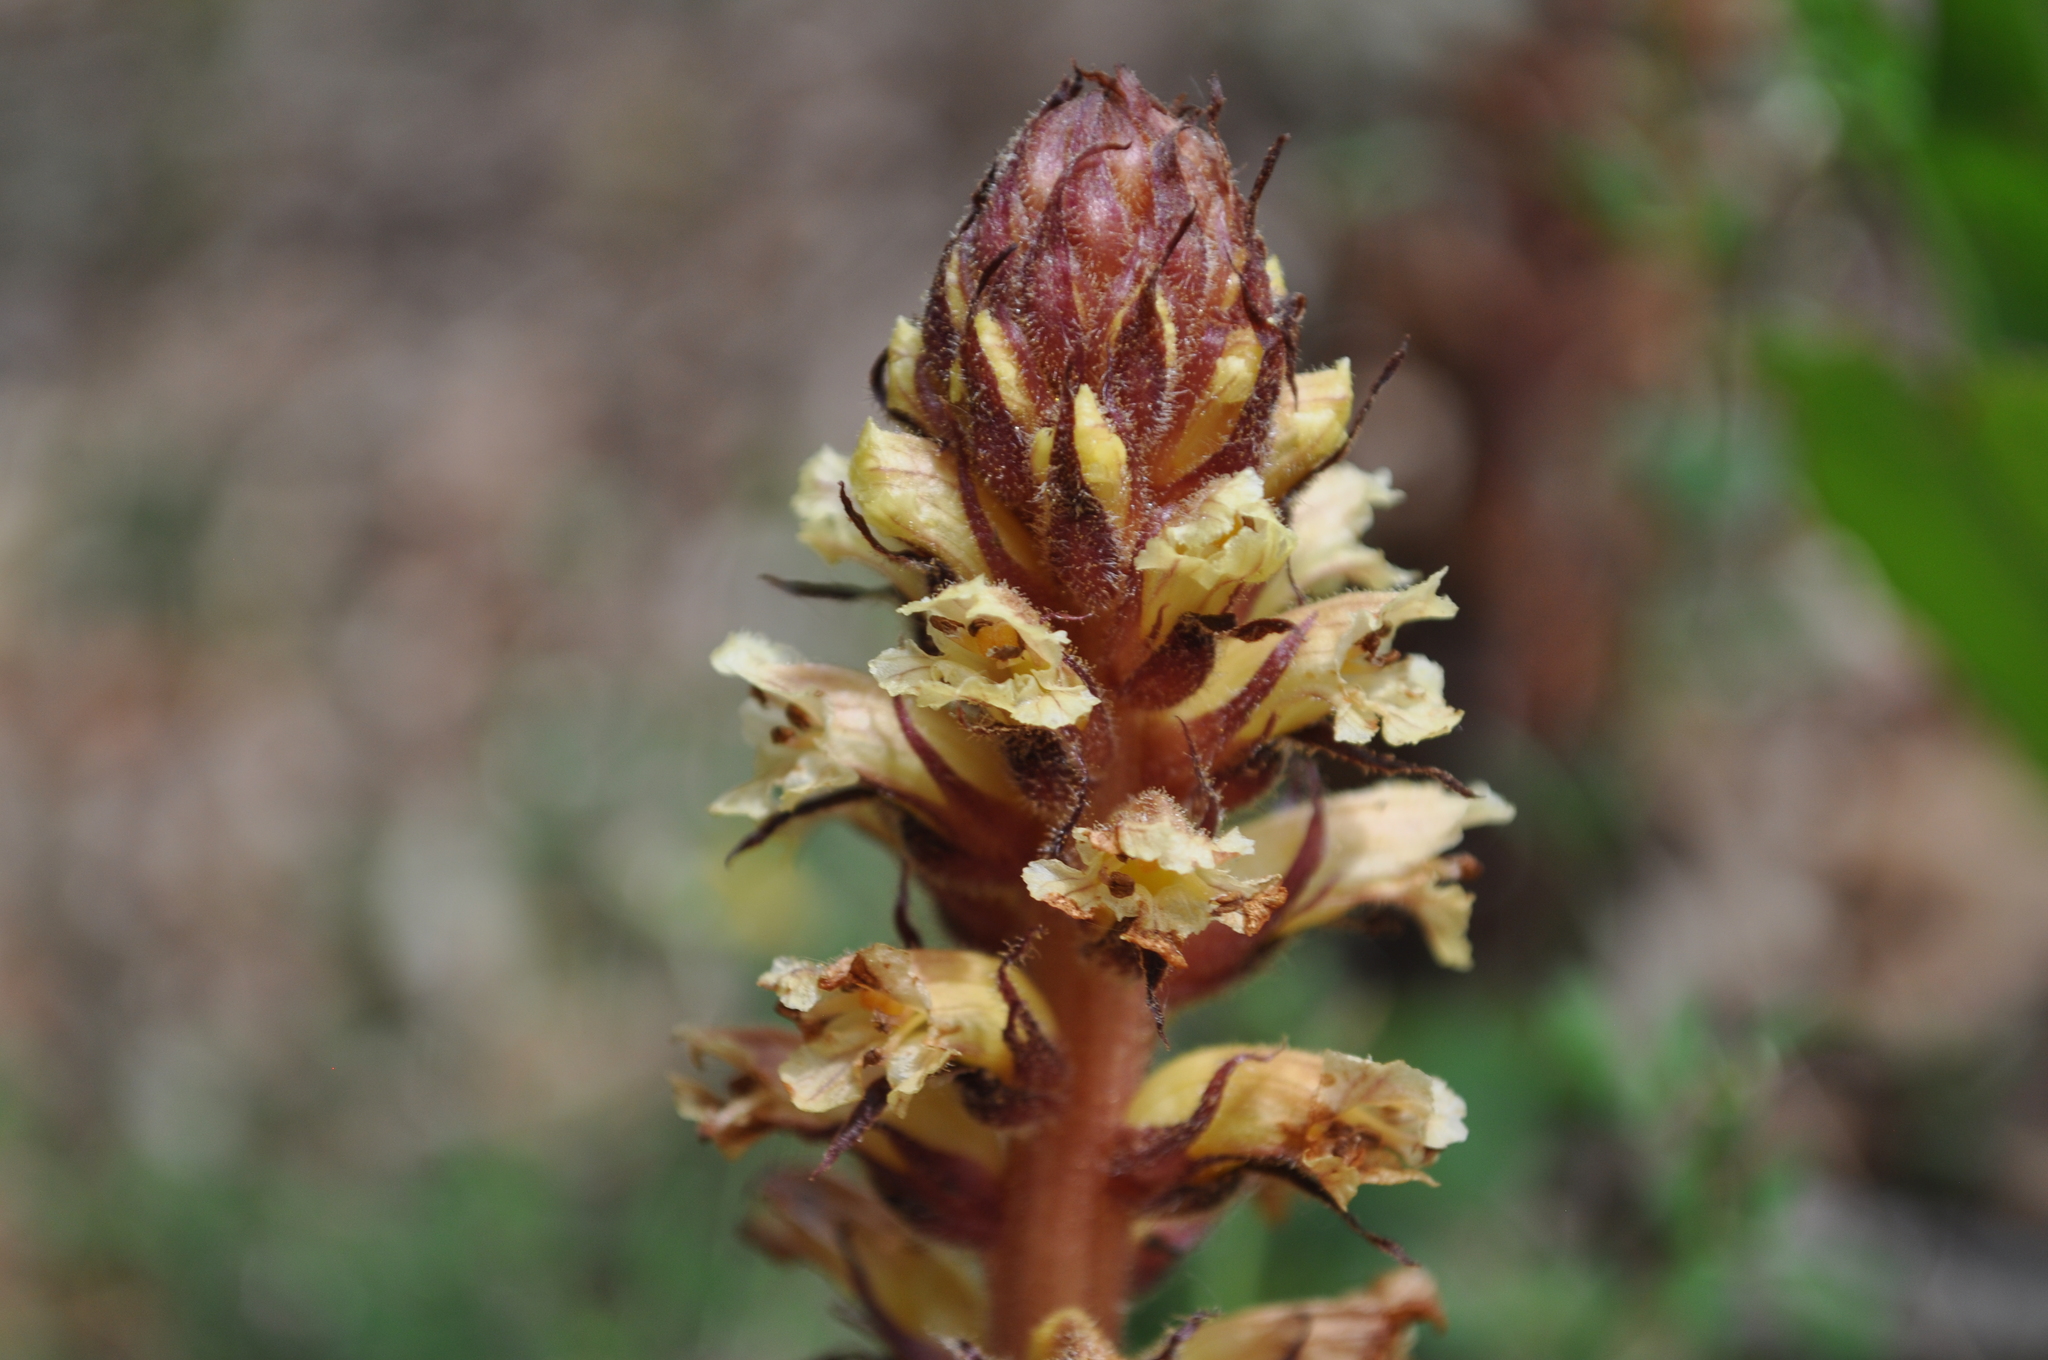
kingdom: Plantae
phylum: Tracheophyta
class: Magnoliopsida
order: Lamiales
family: Orobanchaceae
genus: Orobanche
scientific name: Orobanche hederae
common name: Ivy broomrape
